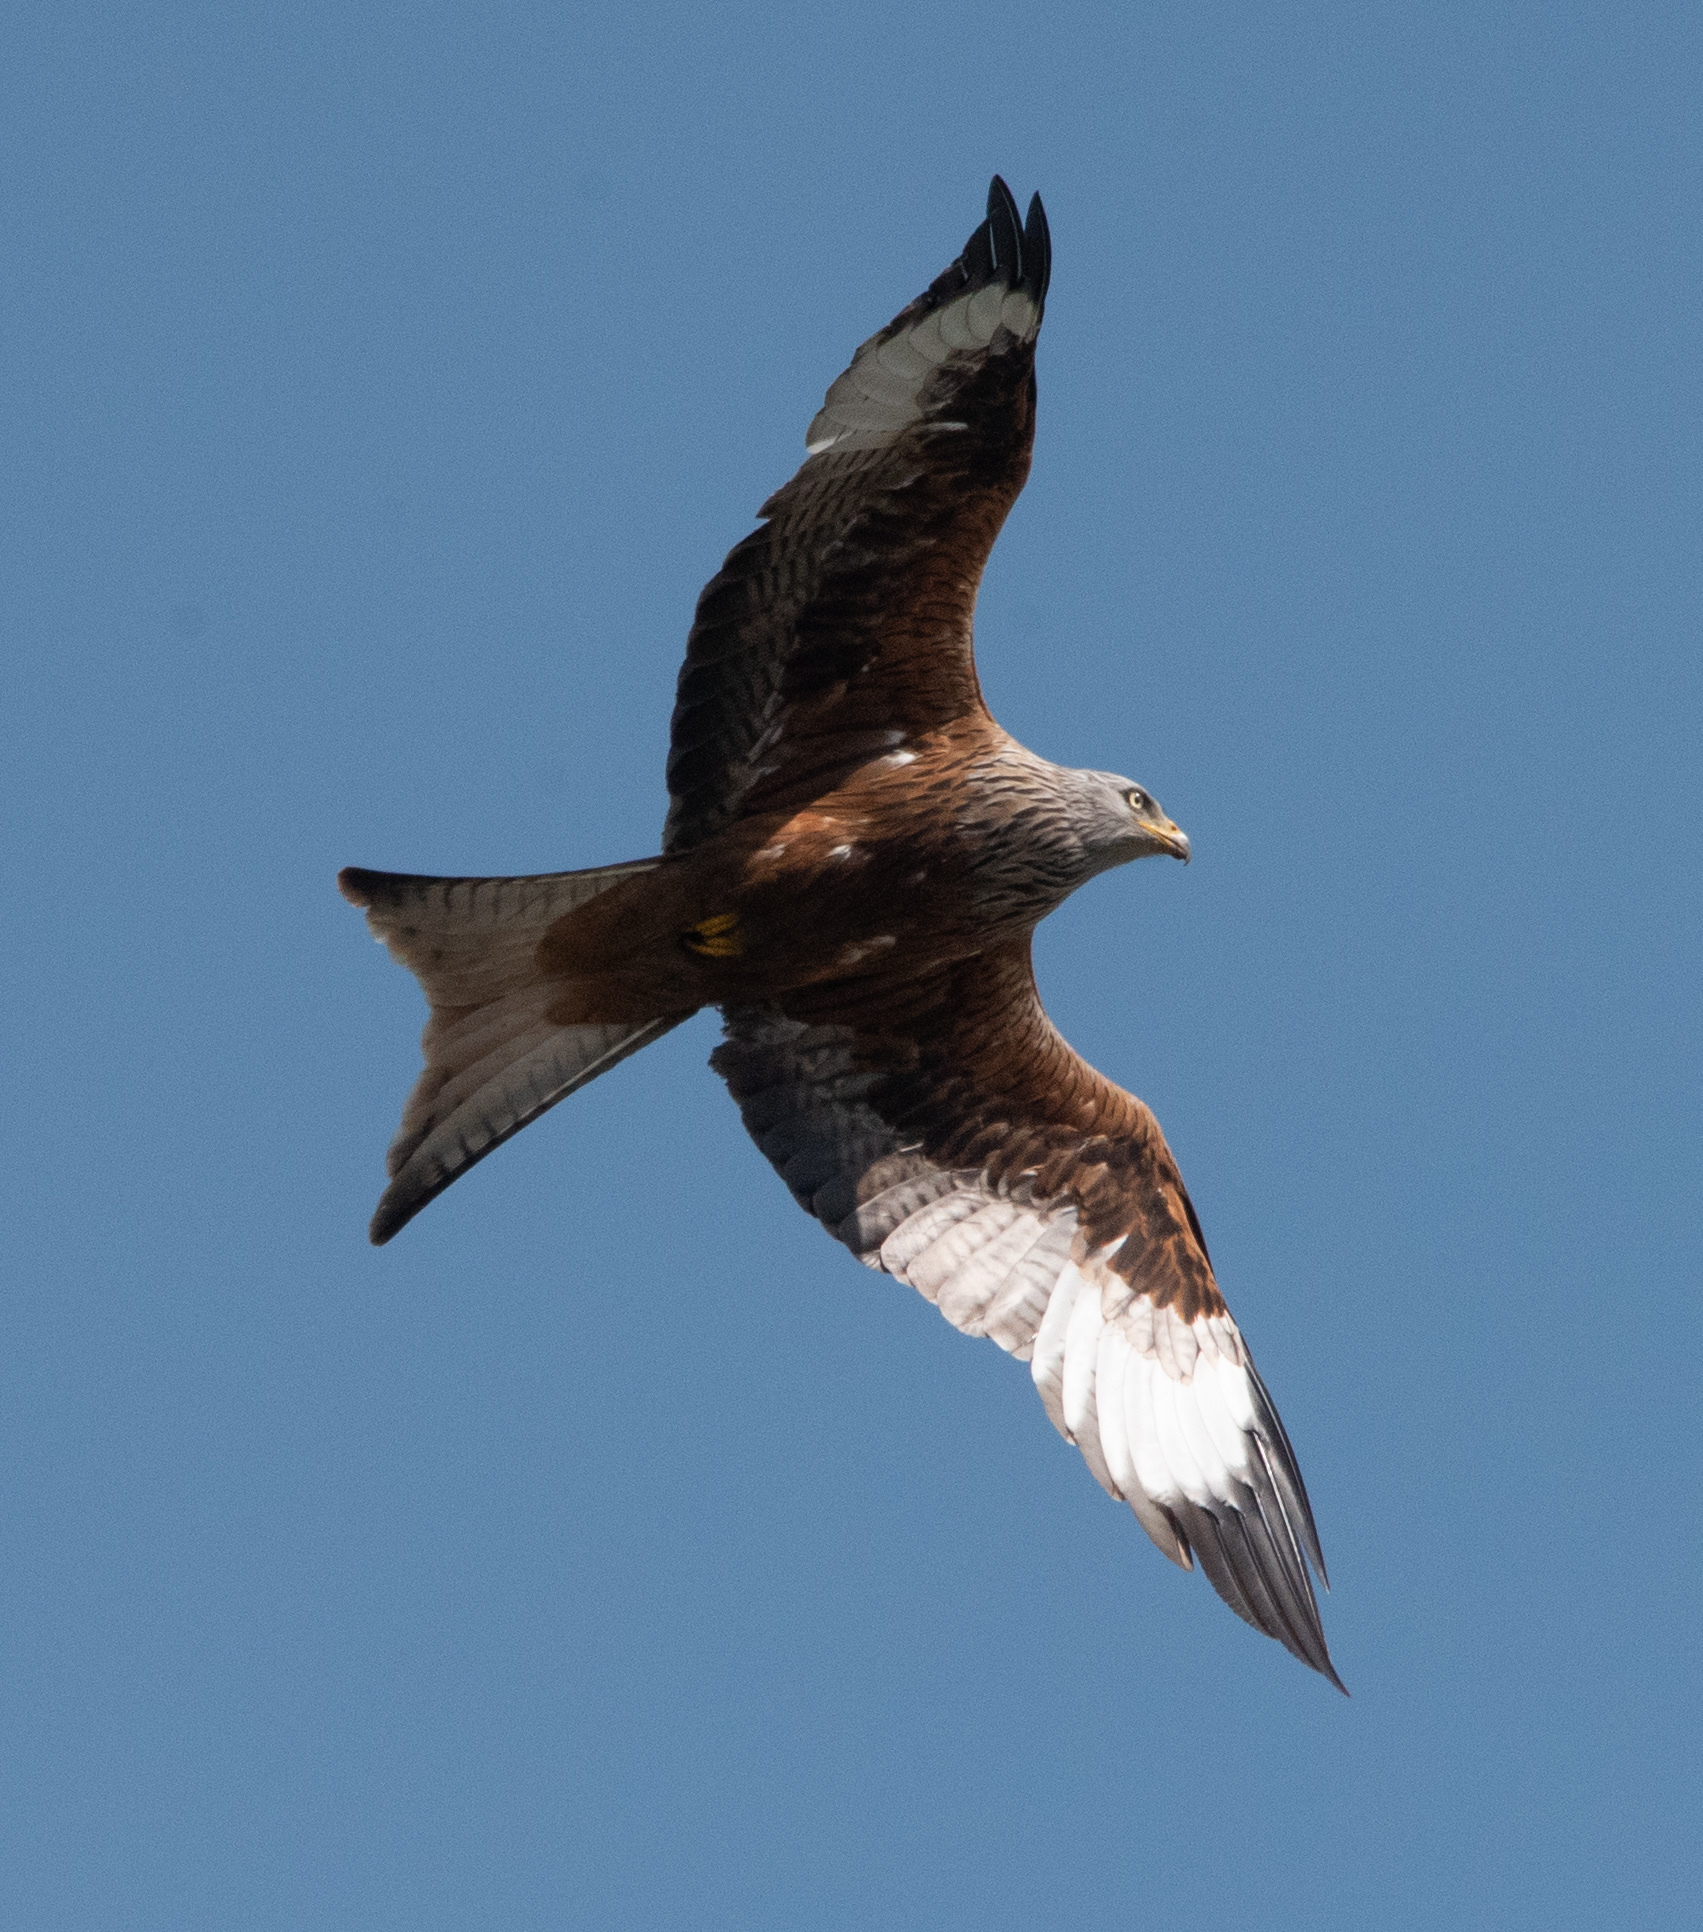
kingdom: Animalia
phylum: Chordata
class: Aves
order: Accipitriformes
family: Accipitridae
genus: Milvus
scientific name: Milvus milvus
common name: Red kite
